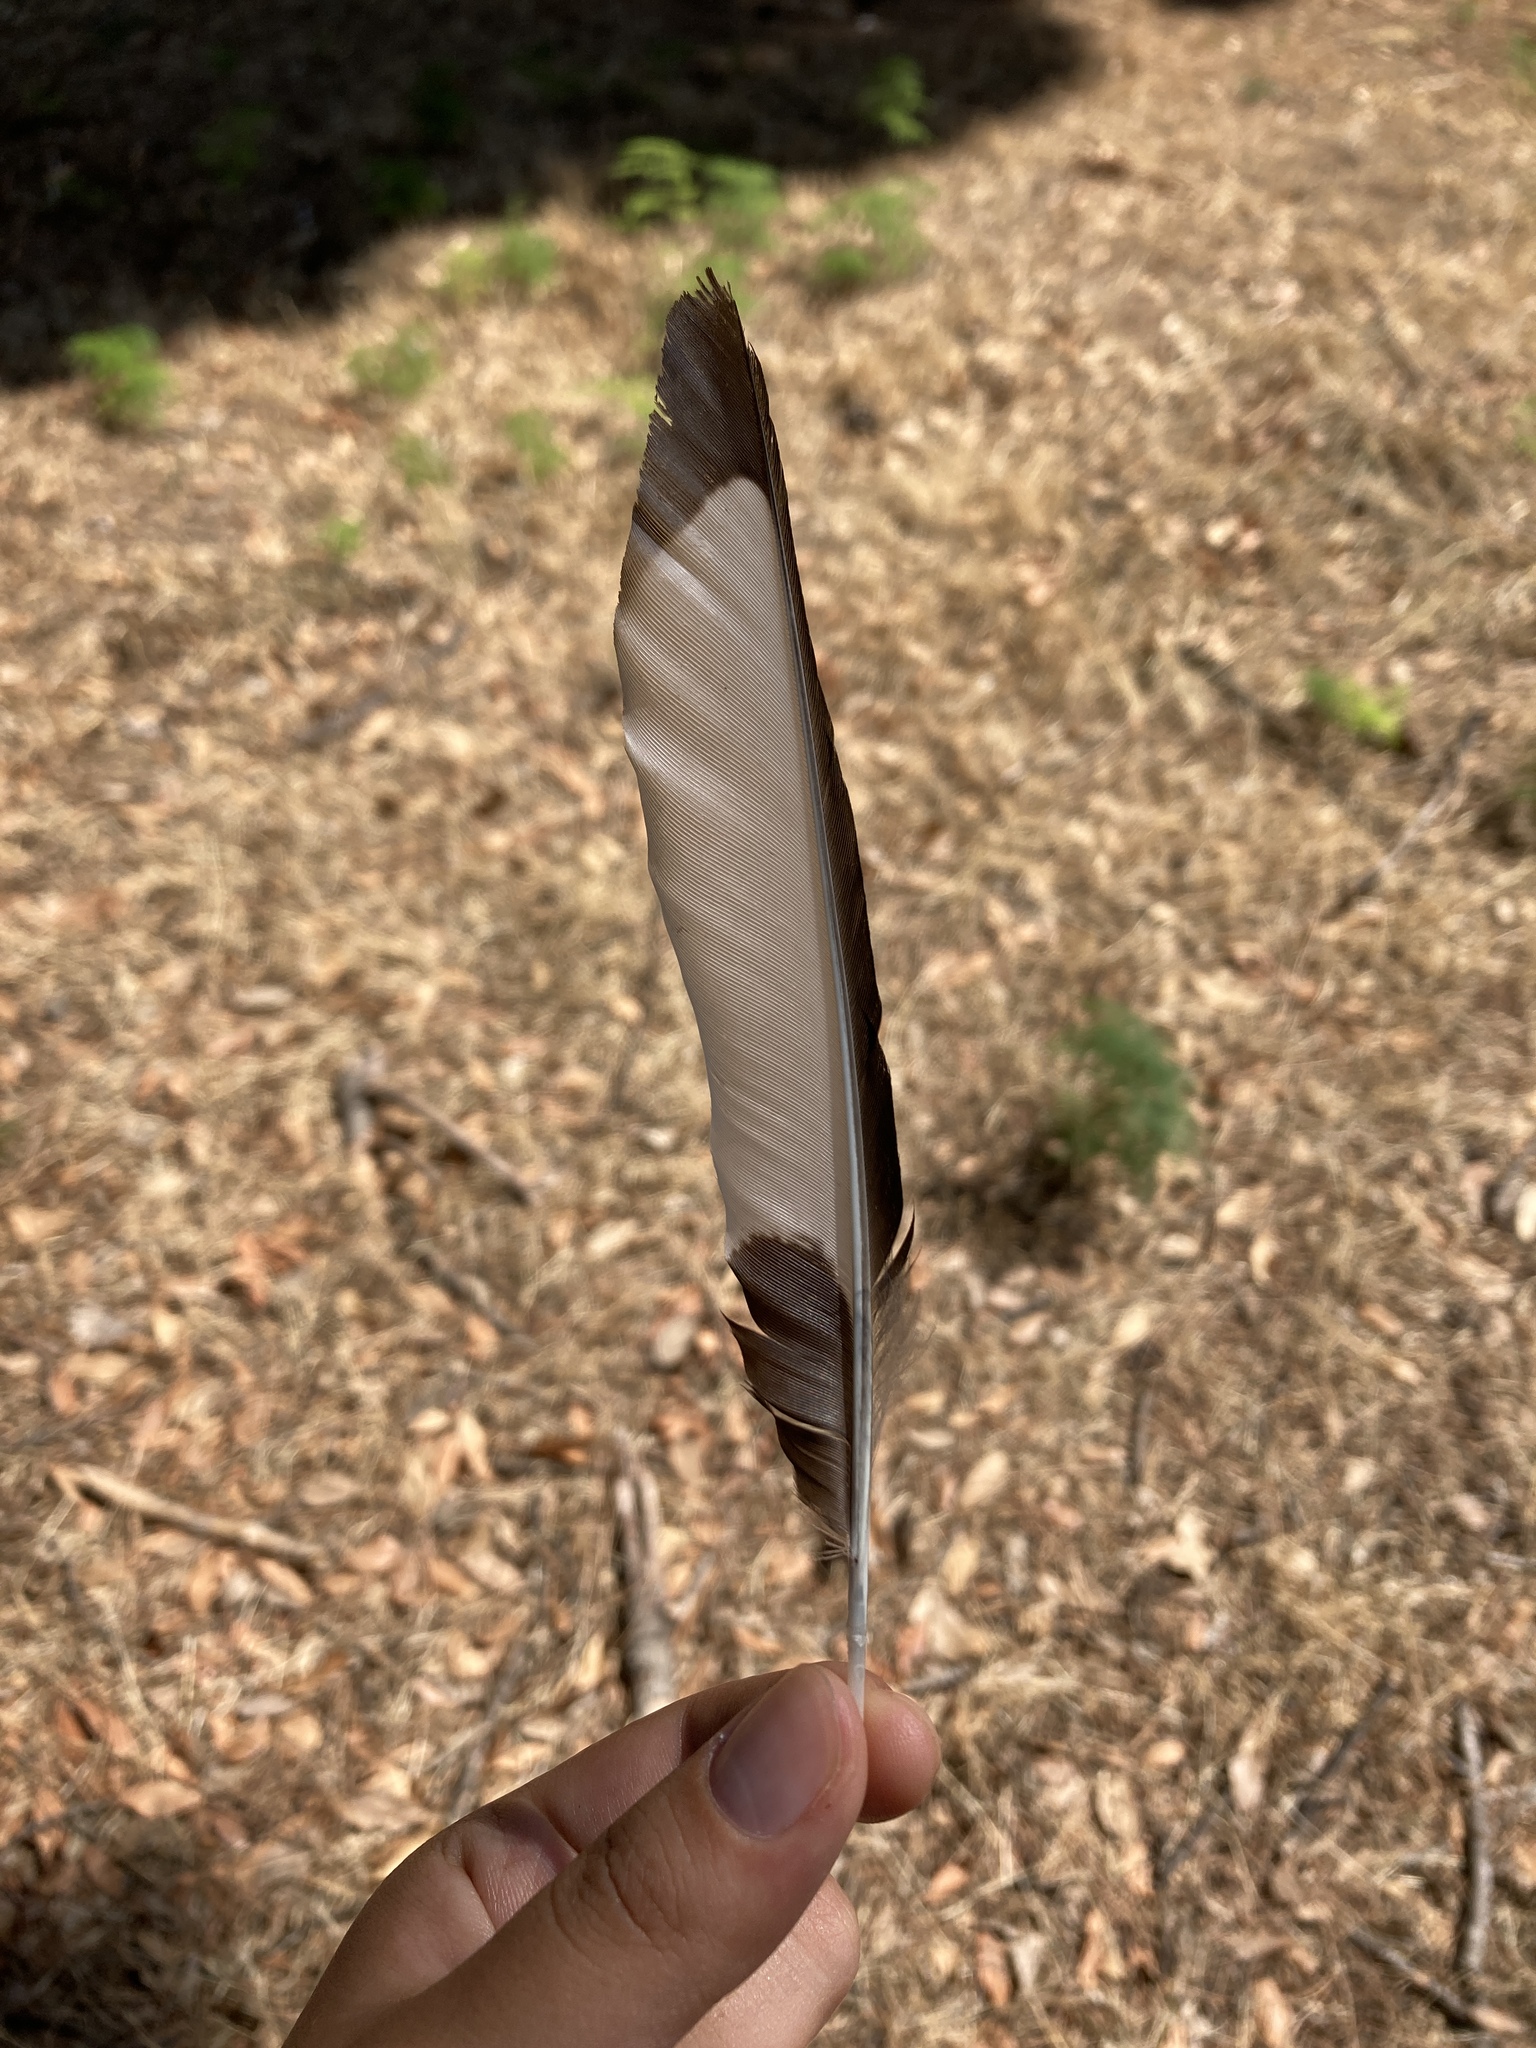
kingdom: Animalia
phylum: Chordata
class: Aves
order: Passeriformes
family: Corvidae
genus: Pica
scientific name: Pica pica
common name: Eurasian magpie
